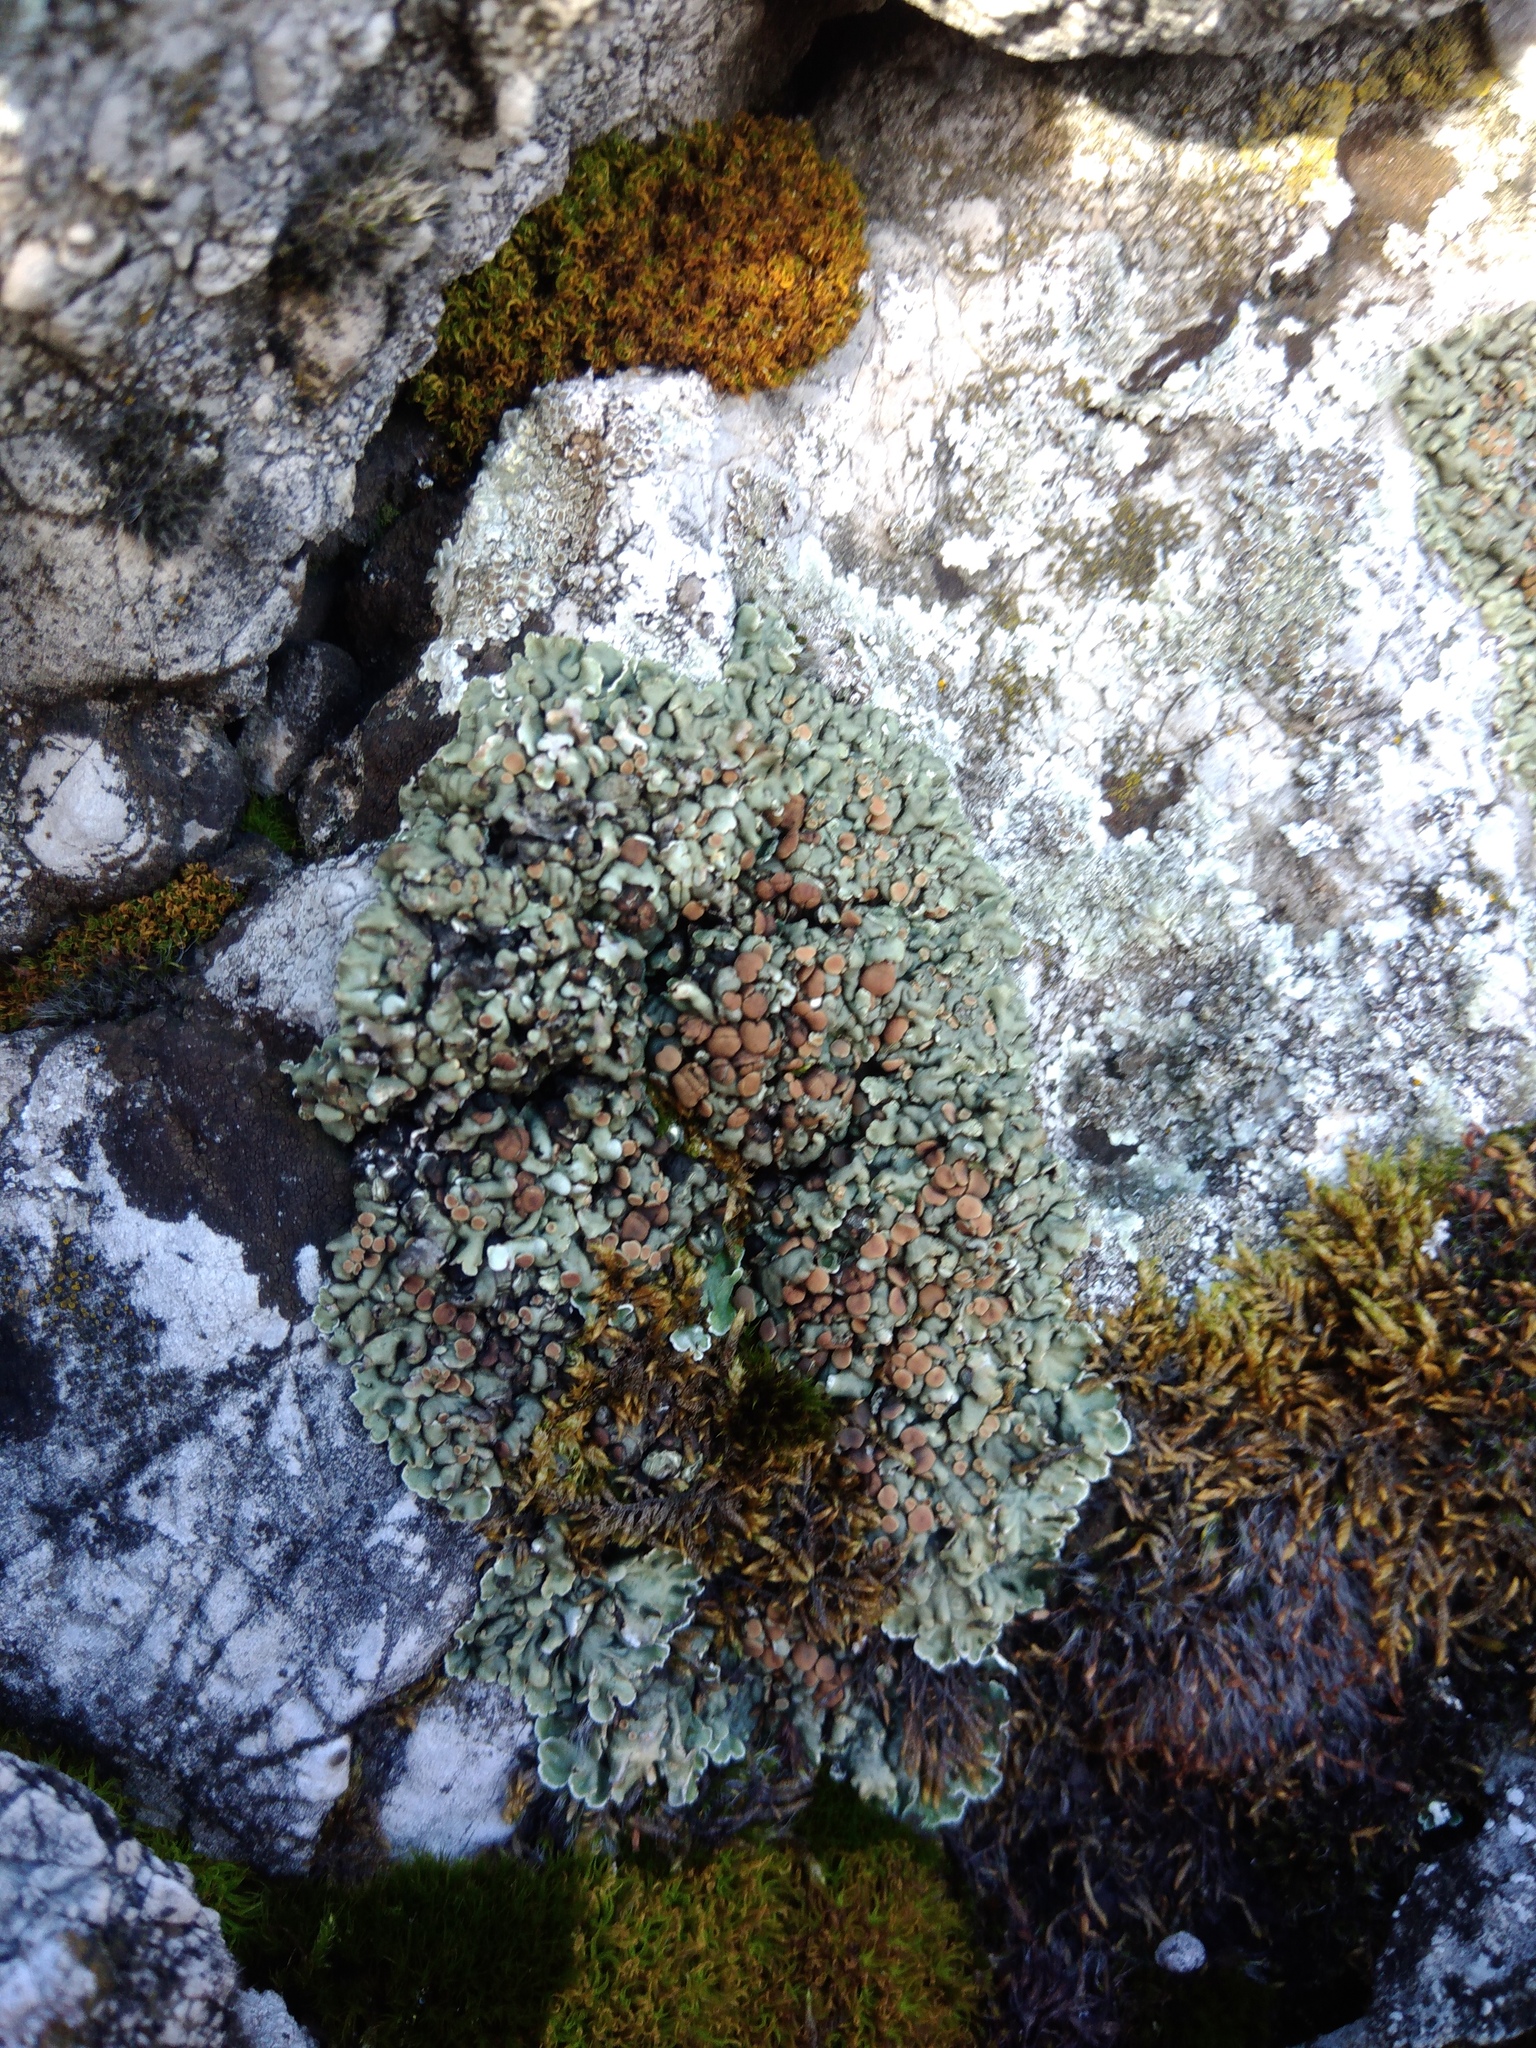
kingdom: Fungi
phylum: Ascomycota
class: Lecanoromycetes
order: Lecanorales
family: Stereocaulaceae
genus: Squamarina
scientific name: Squamarina cartilaginea
